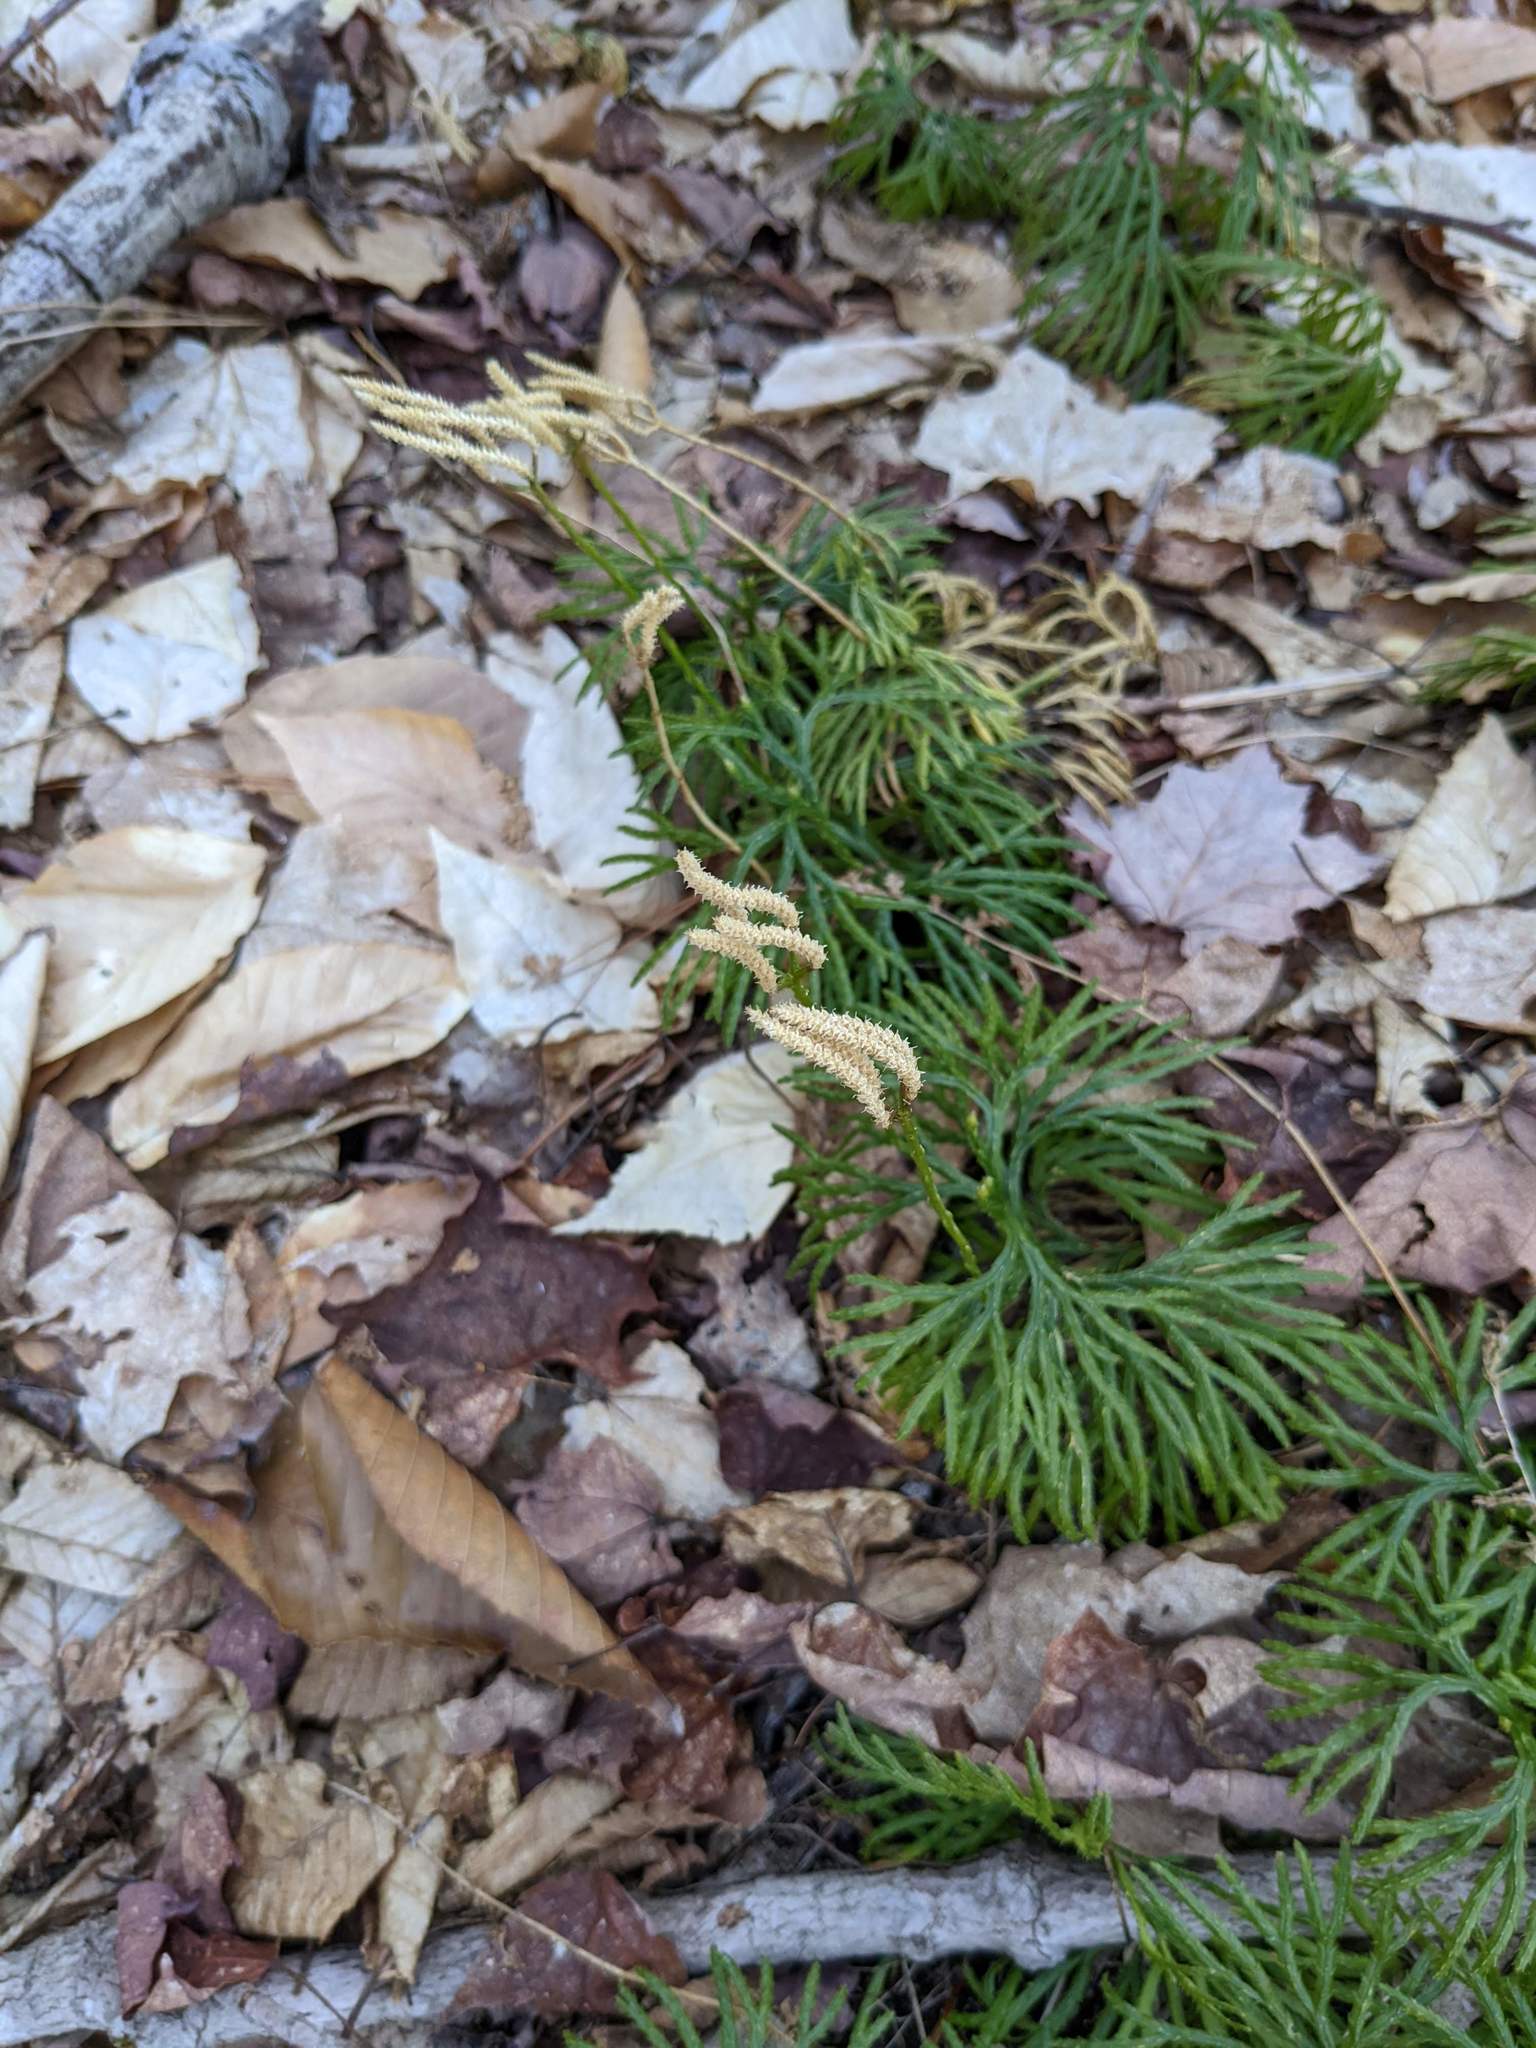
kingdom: Plantae
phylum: Tracheophyta
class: Lycopodiopsida
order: Lycopodiales
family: Lycopodiaceae
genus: Diphasiastrum
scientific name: Diphasiastrum digitatum
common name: Southern running-pine
